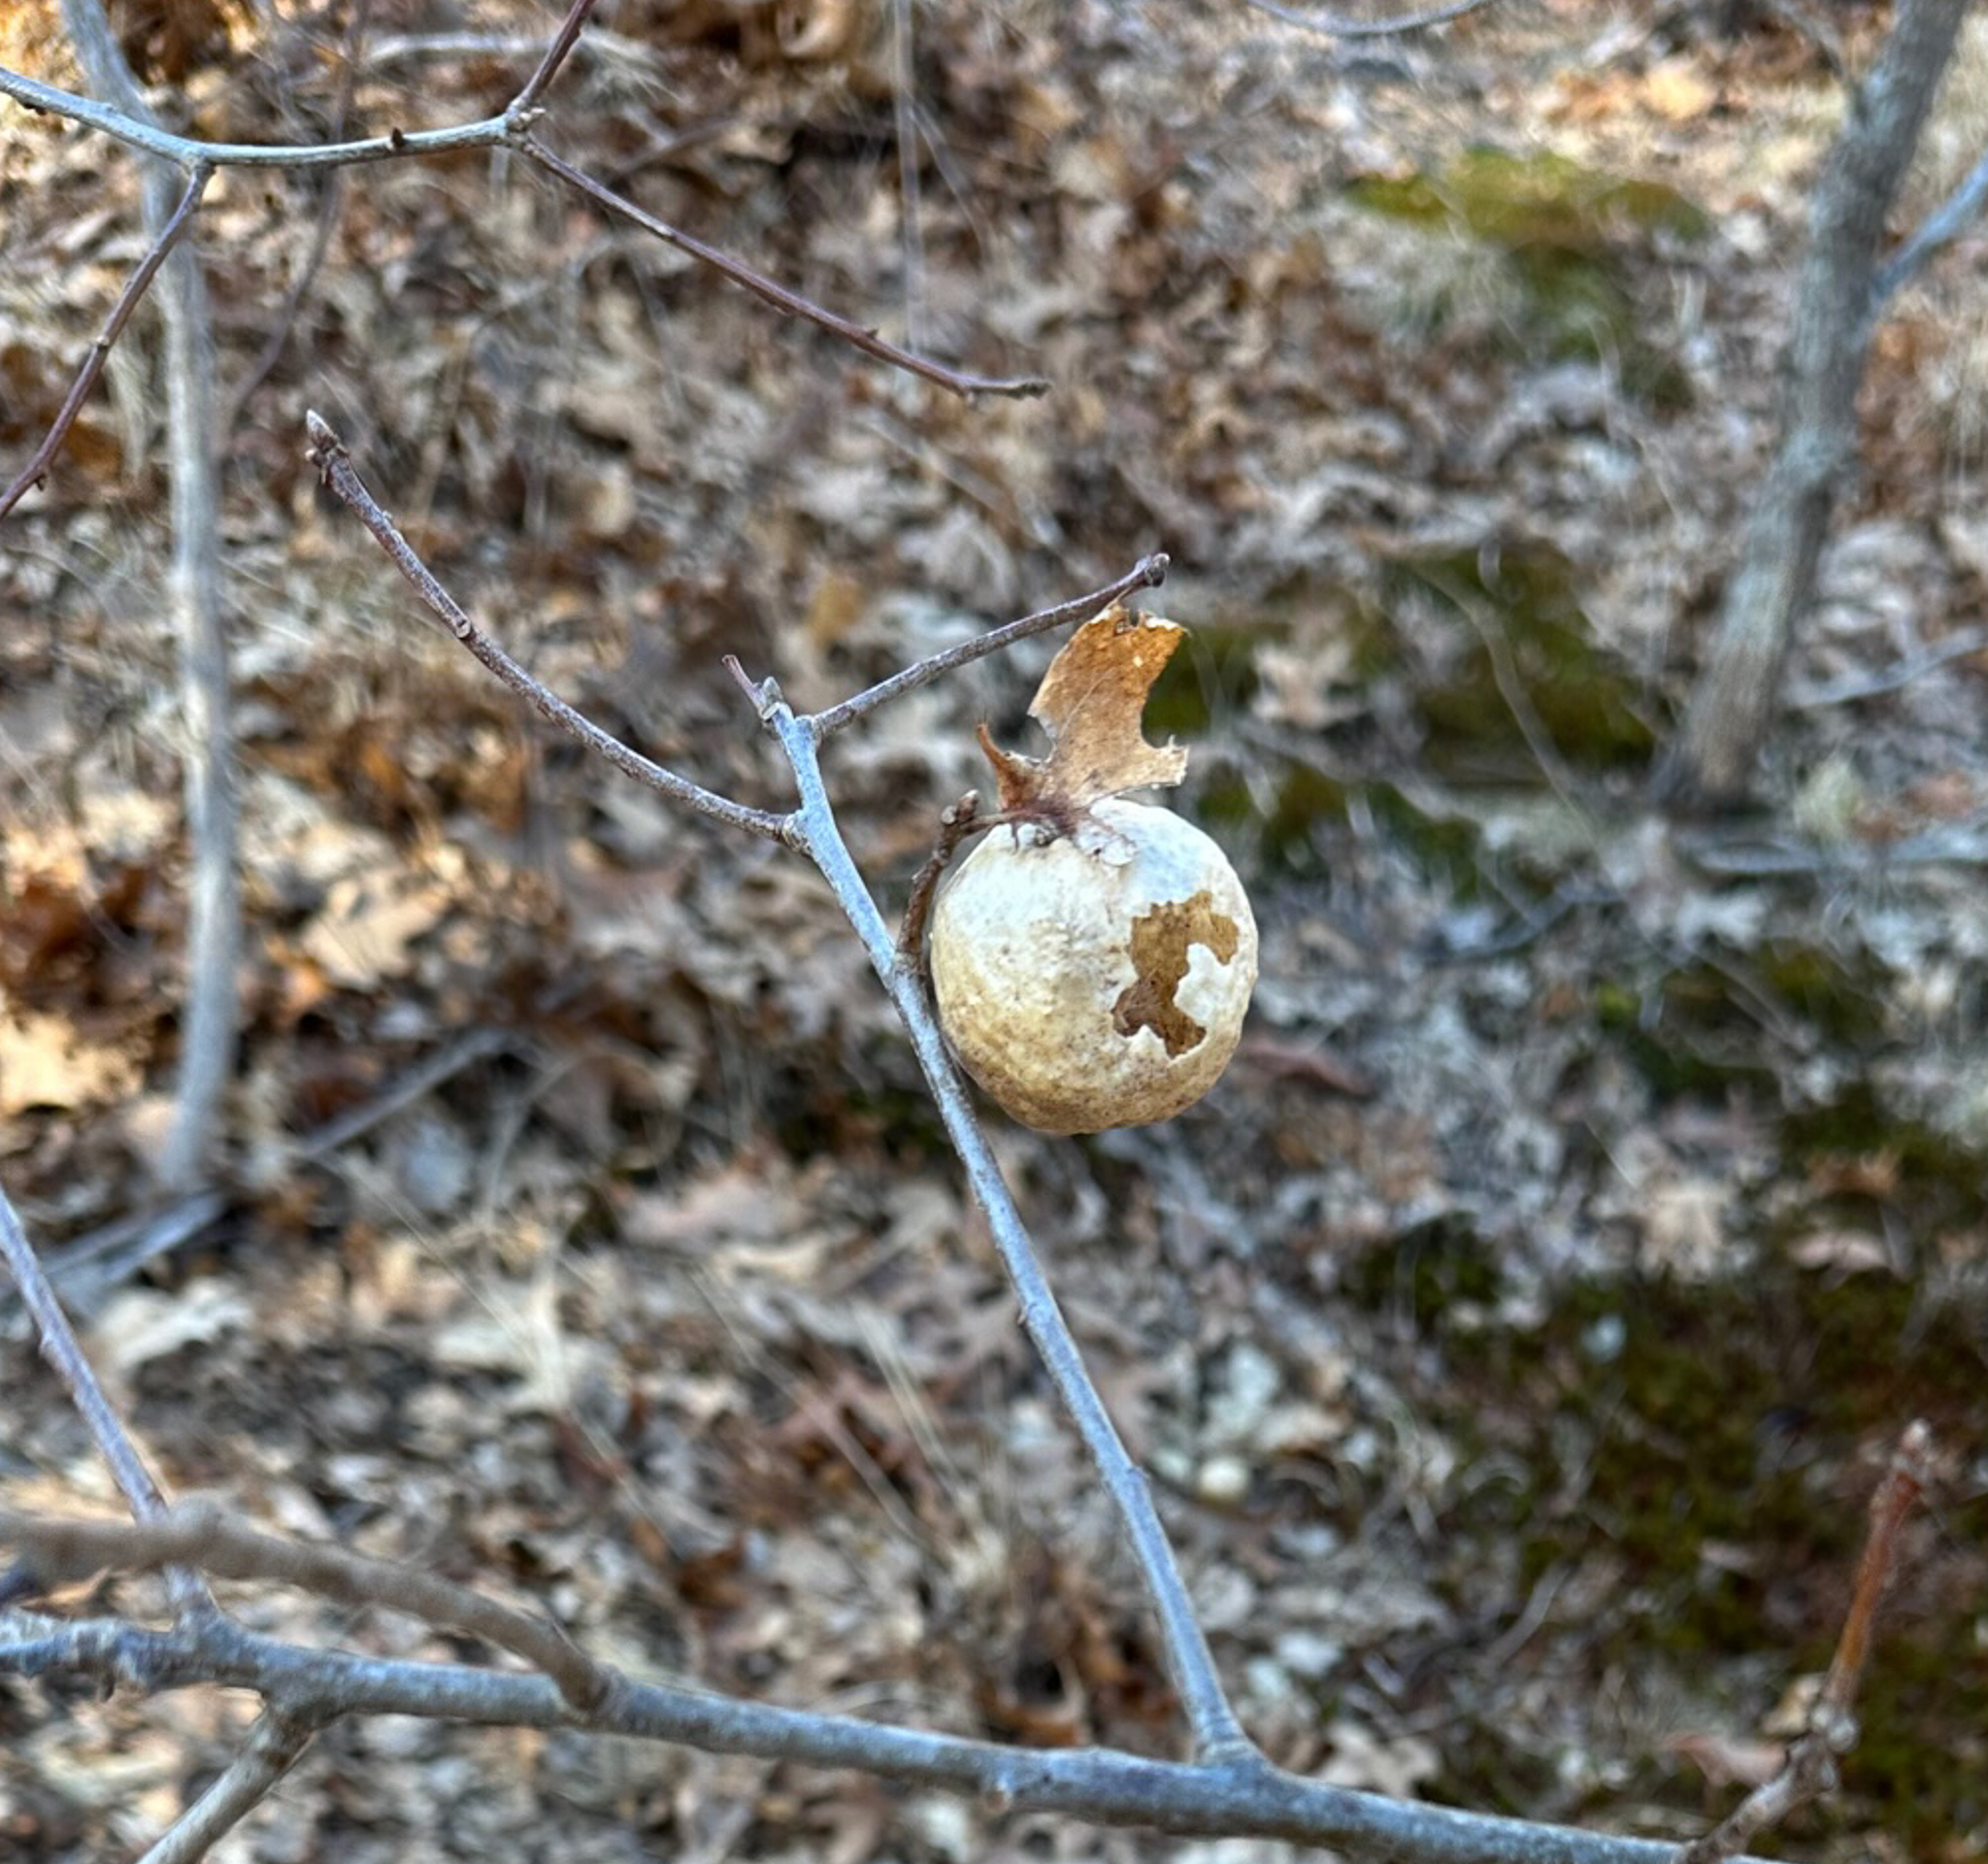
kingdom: Animalia
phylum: Arthropoda
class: Insecta
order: Hymenoptera
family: Cynipidae
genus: Amphibolips
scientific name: Amphibolips
